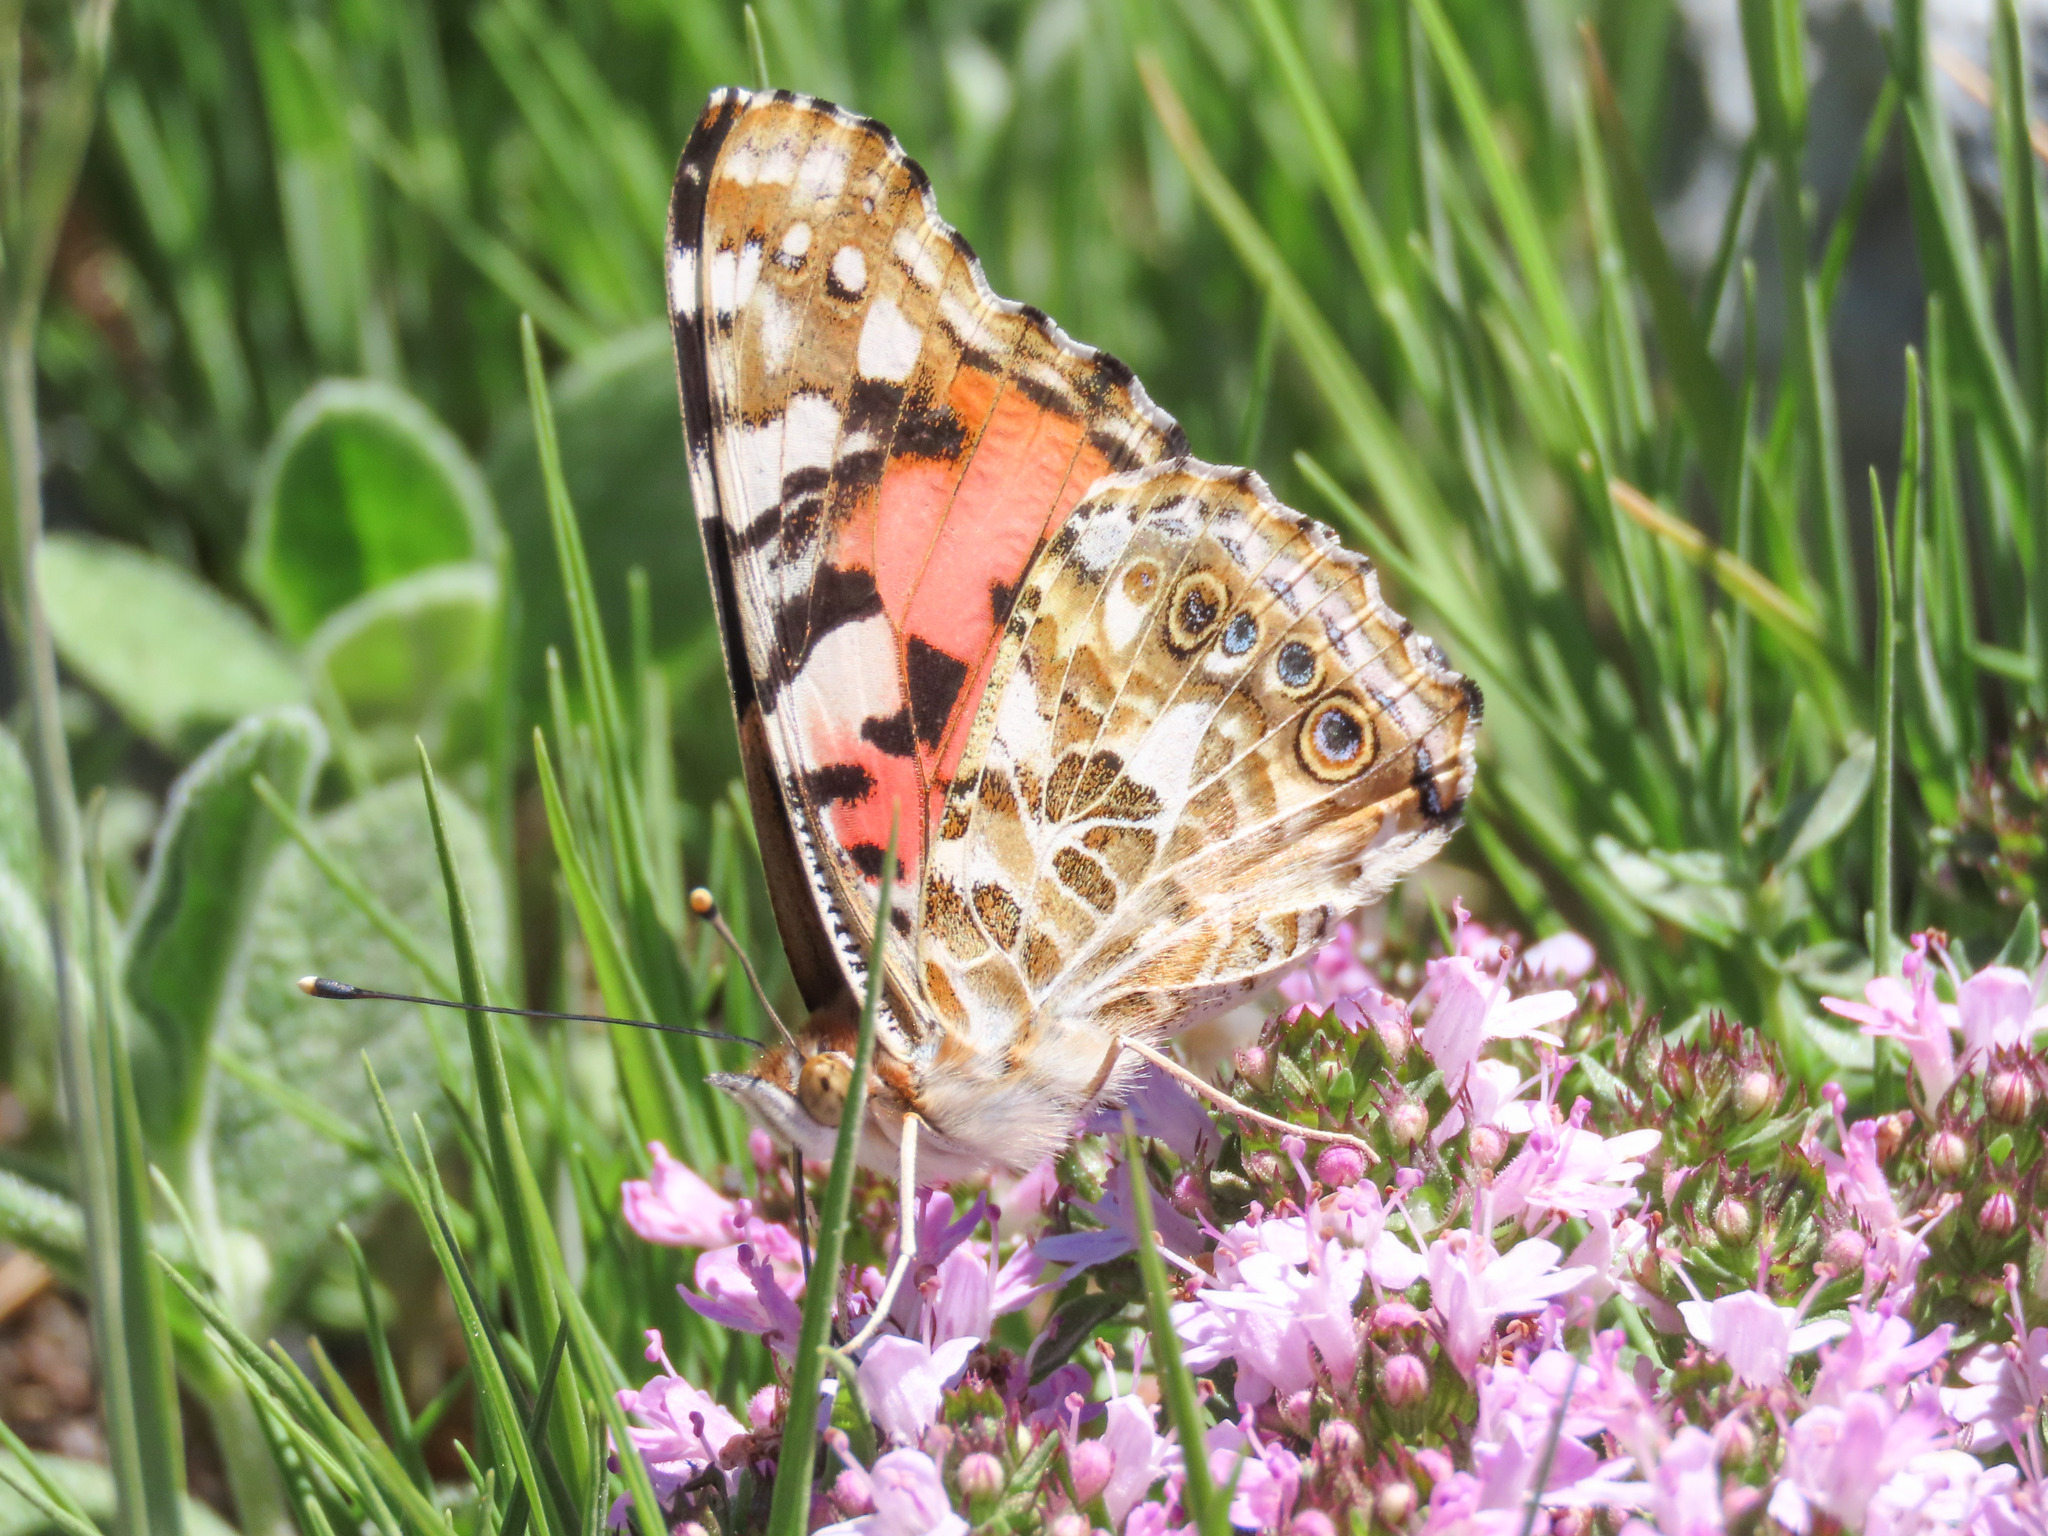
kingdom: Animalia
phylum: Arthropoda
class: Insecta
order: Lepidoptera
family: Nymphalidae
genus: Vanessa
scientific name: Vanessa cardui
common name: Painted lady
